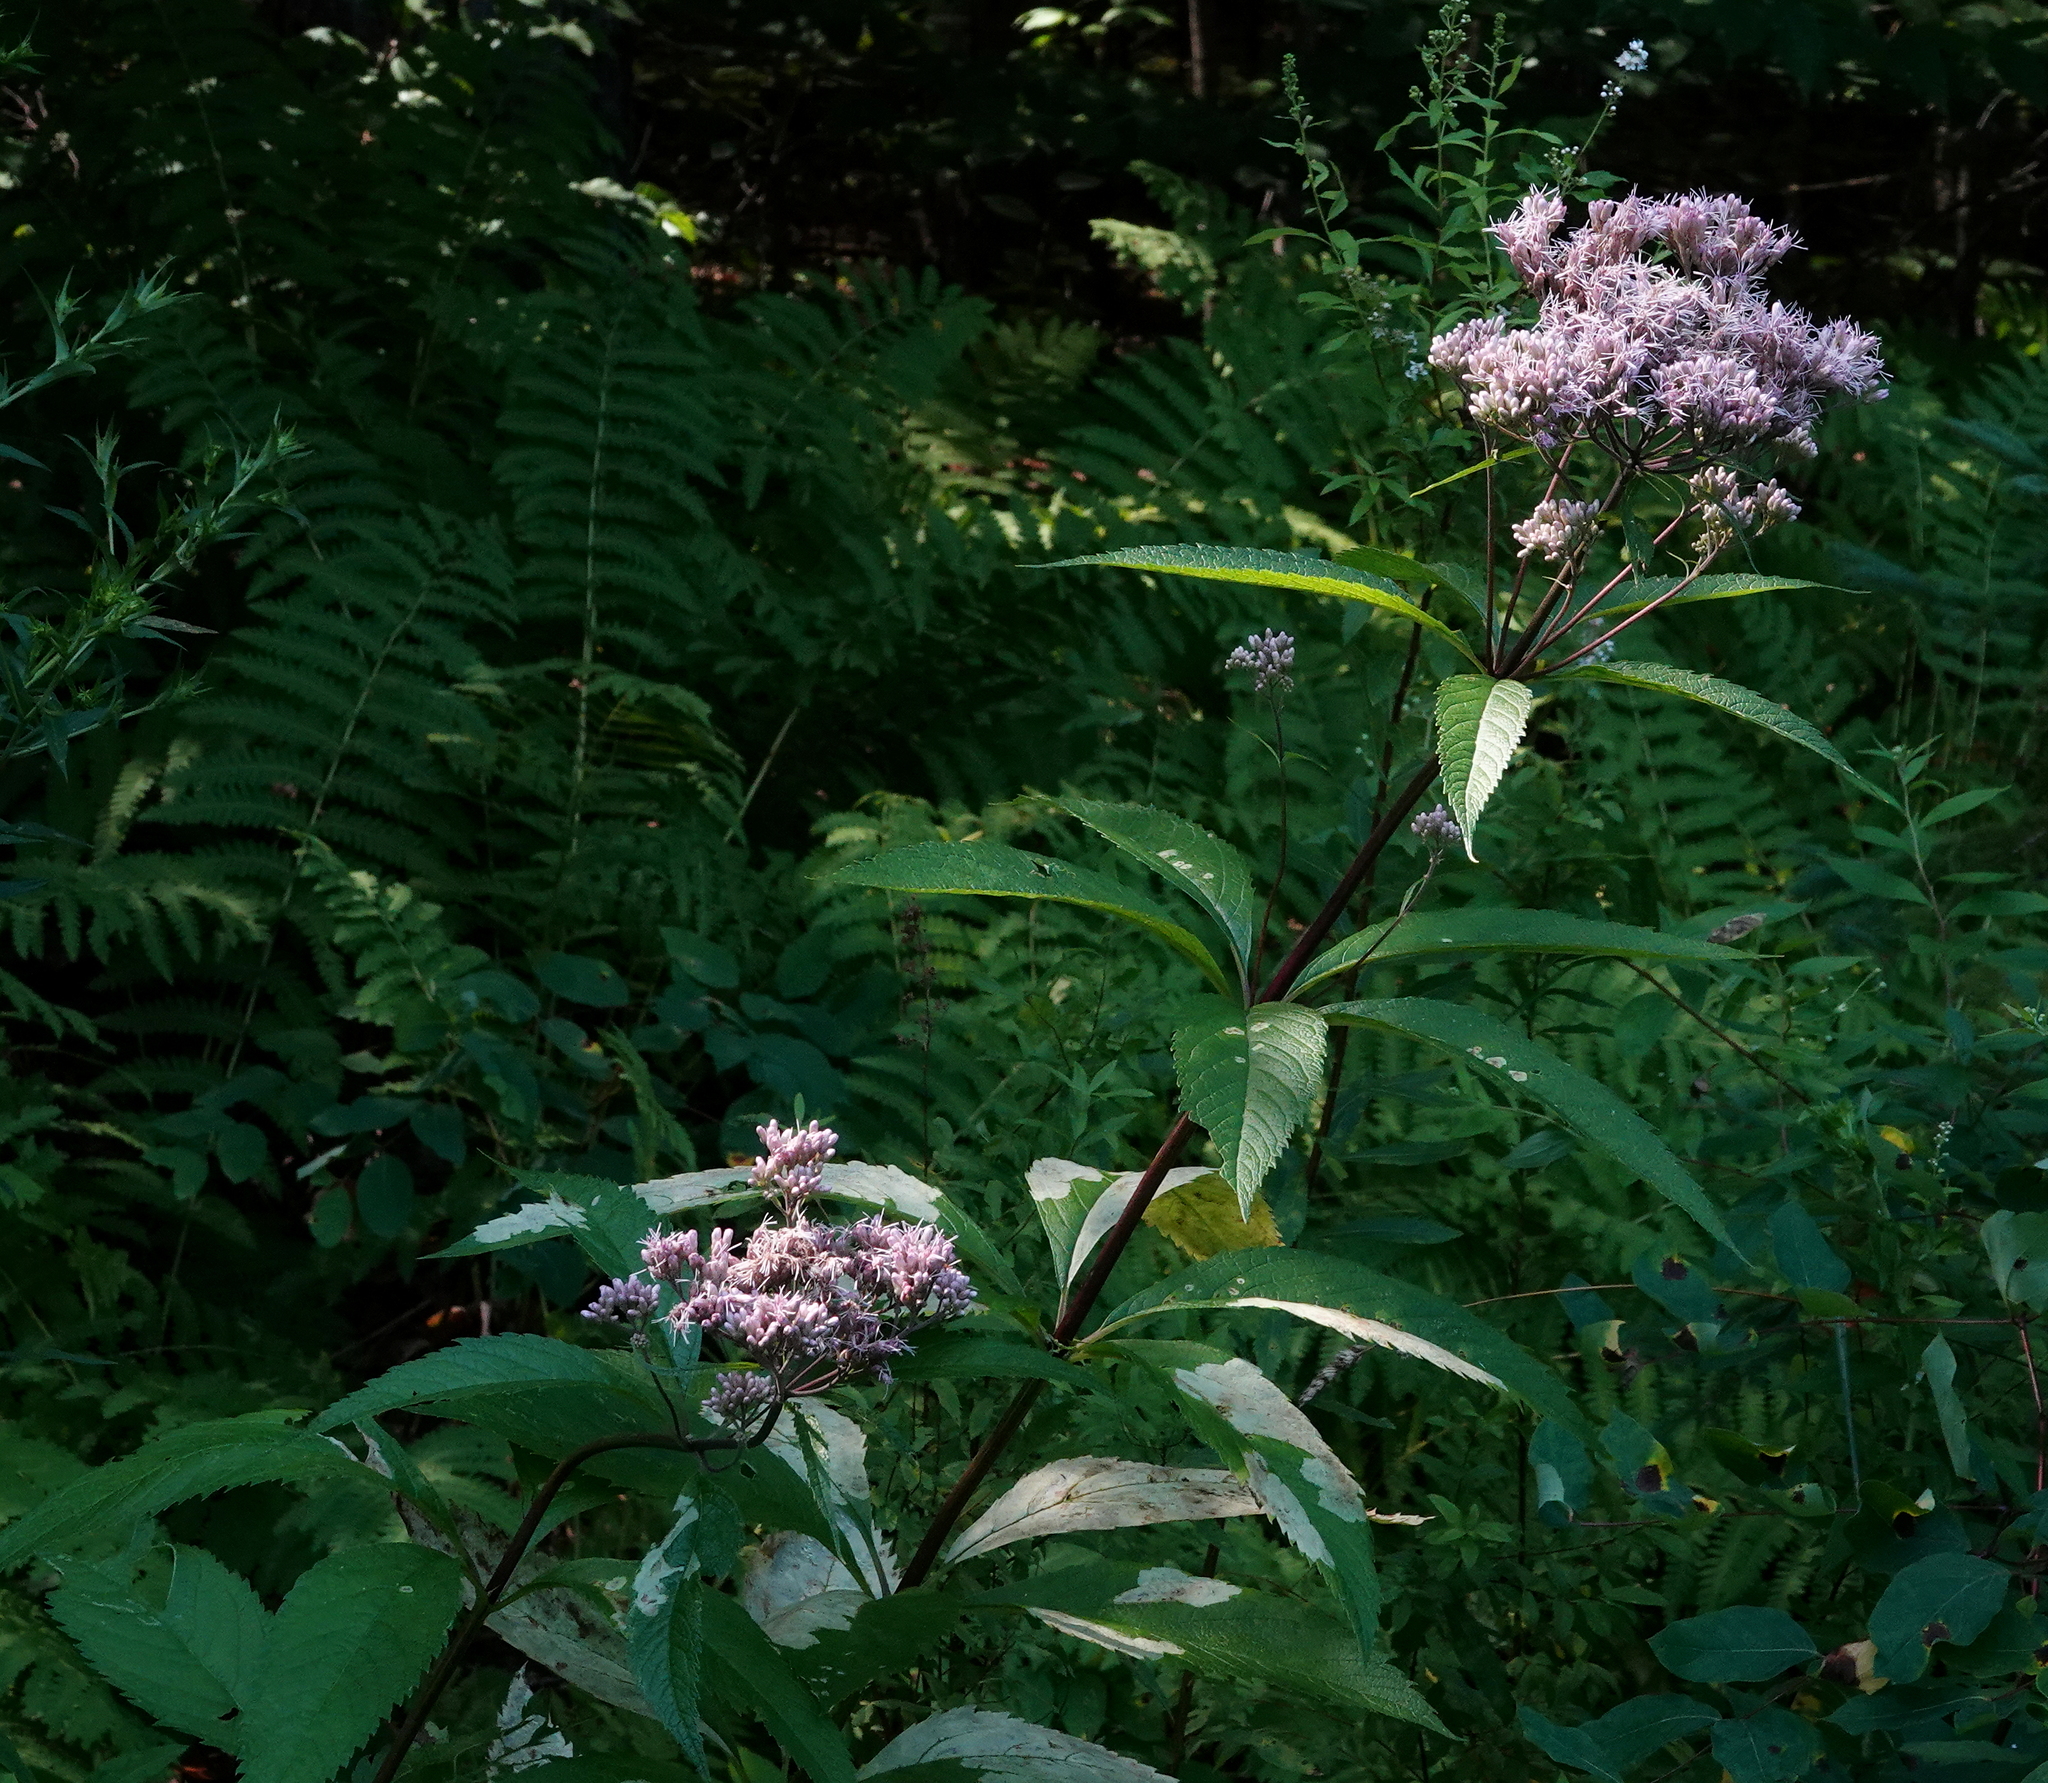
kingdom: Plantae
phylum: Tracheophyta
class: Magnoliopsida
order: Asterales
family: Asteraceae
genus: Eutrochium
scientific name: Eutrochium maculatum
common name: Spotted joe pye weed
